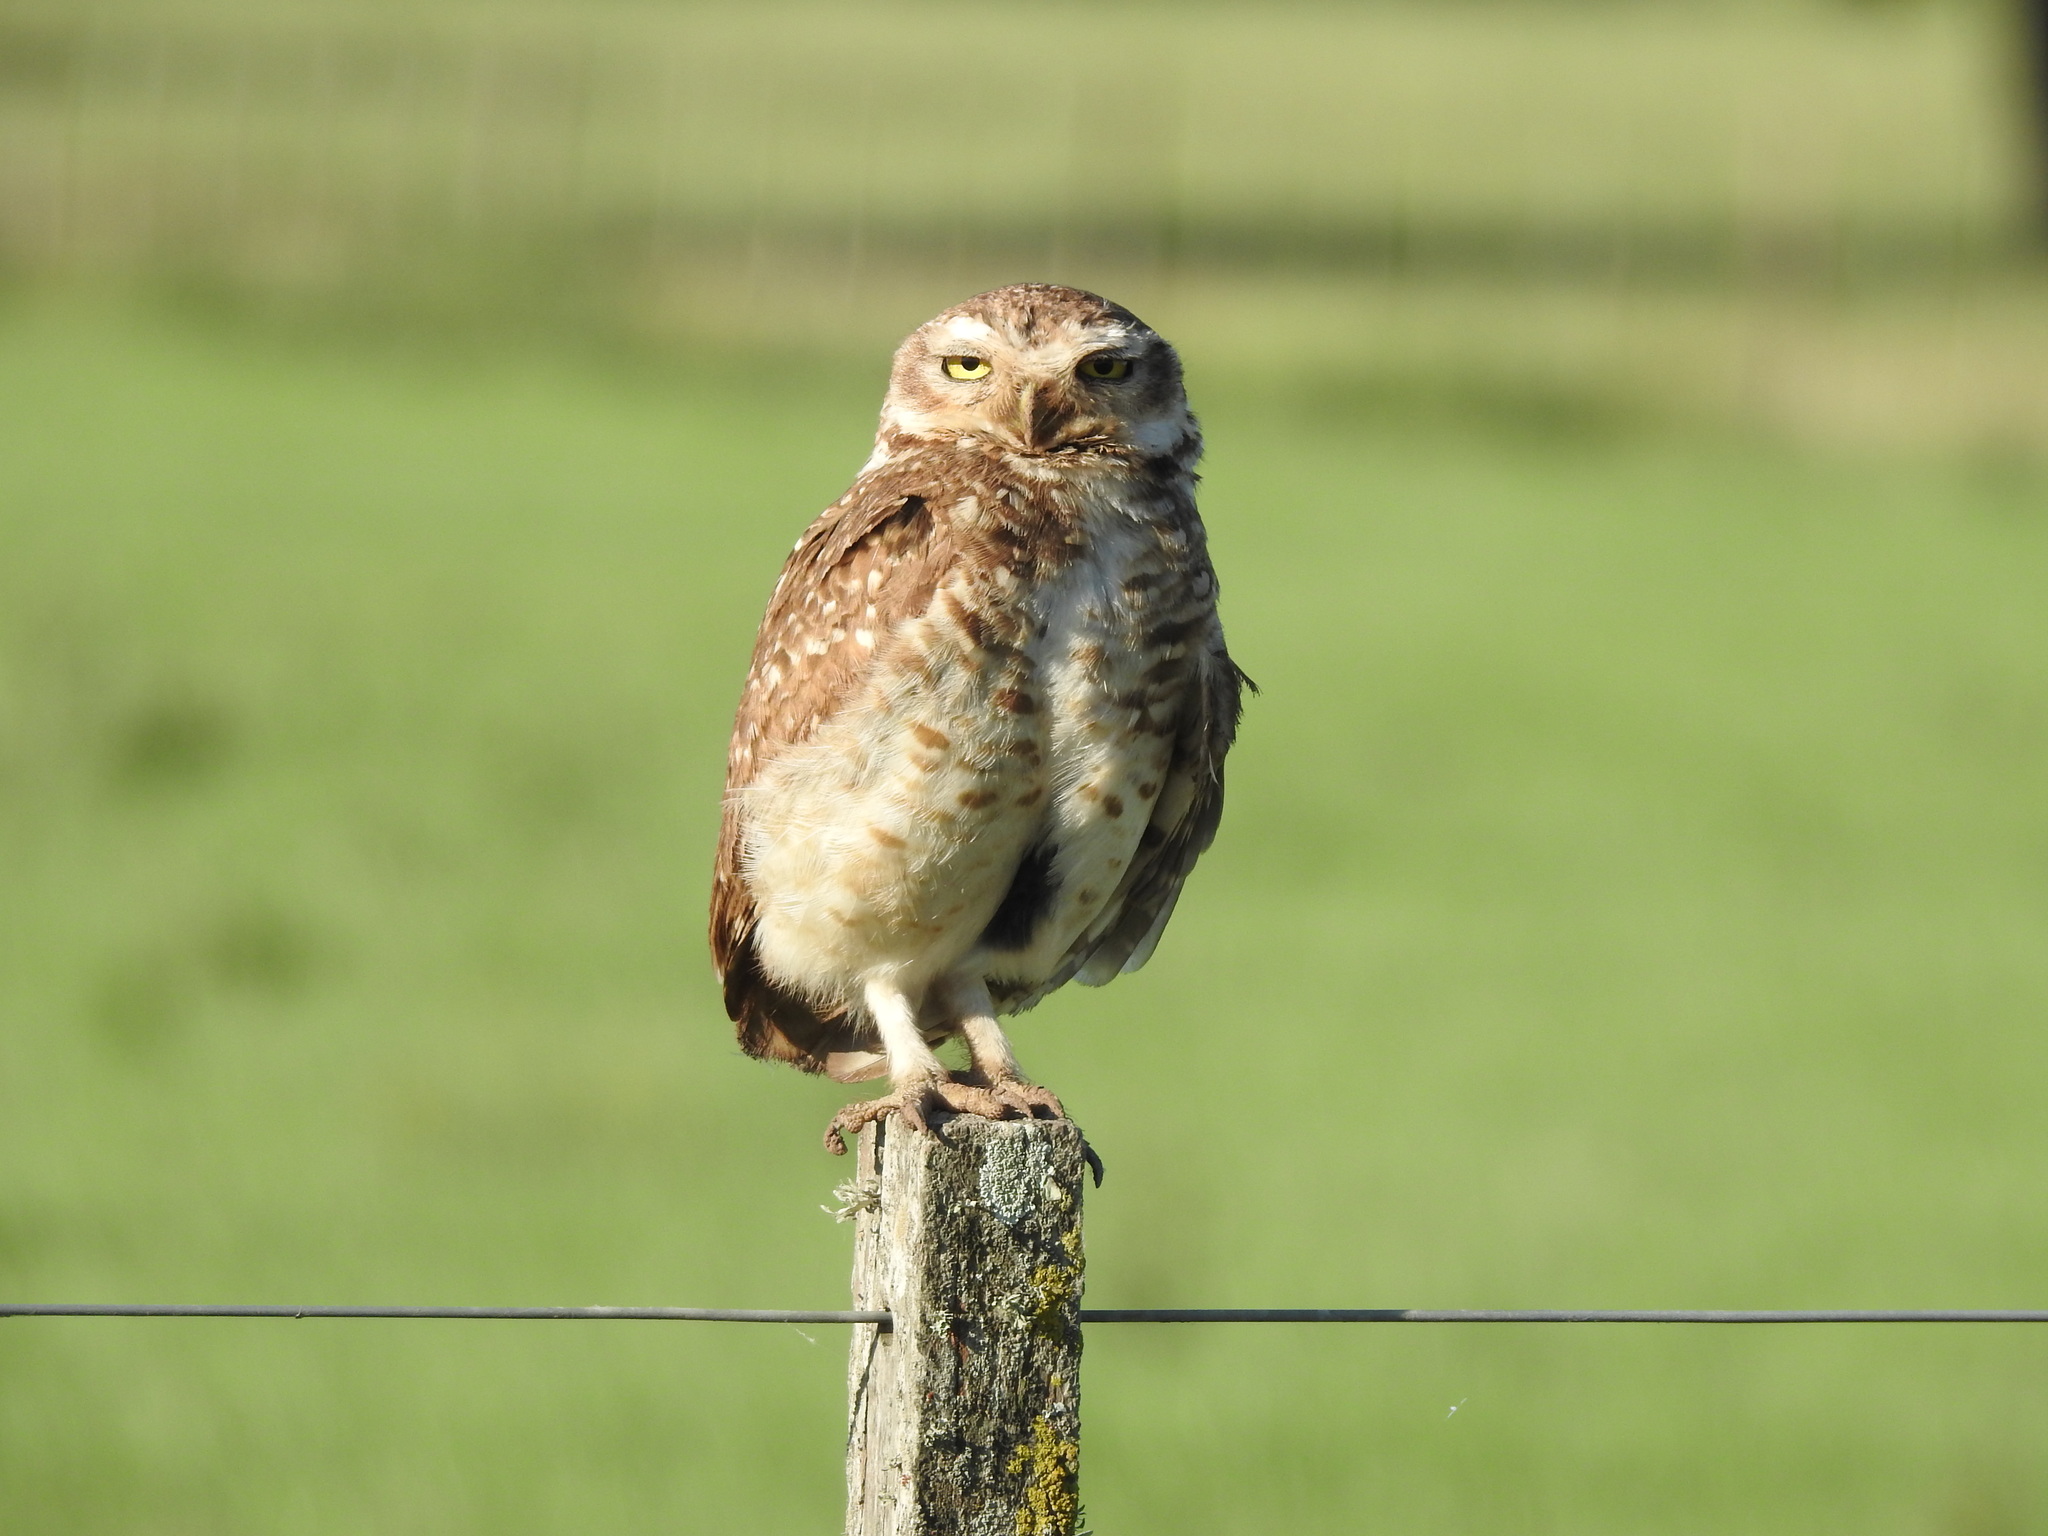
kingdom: Animalia
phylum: Chordata
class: Aves
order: Strigiformes
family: Strigidae
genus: Athene
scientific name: Athene cunicularia
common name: Burrowing owl
